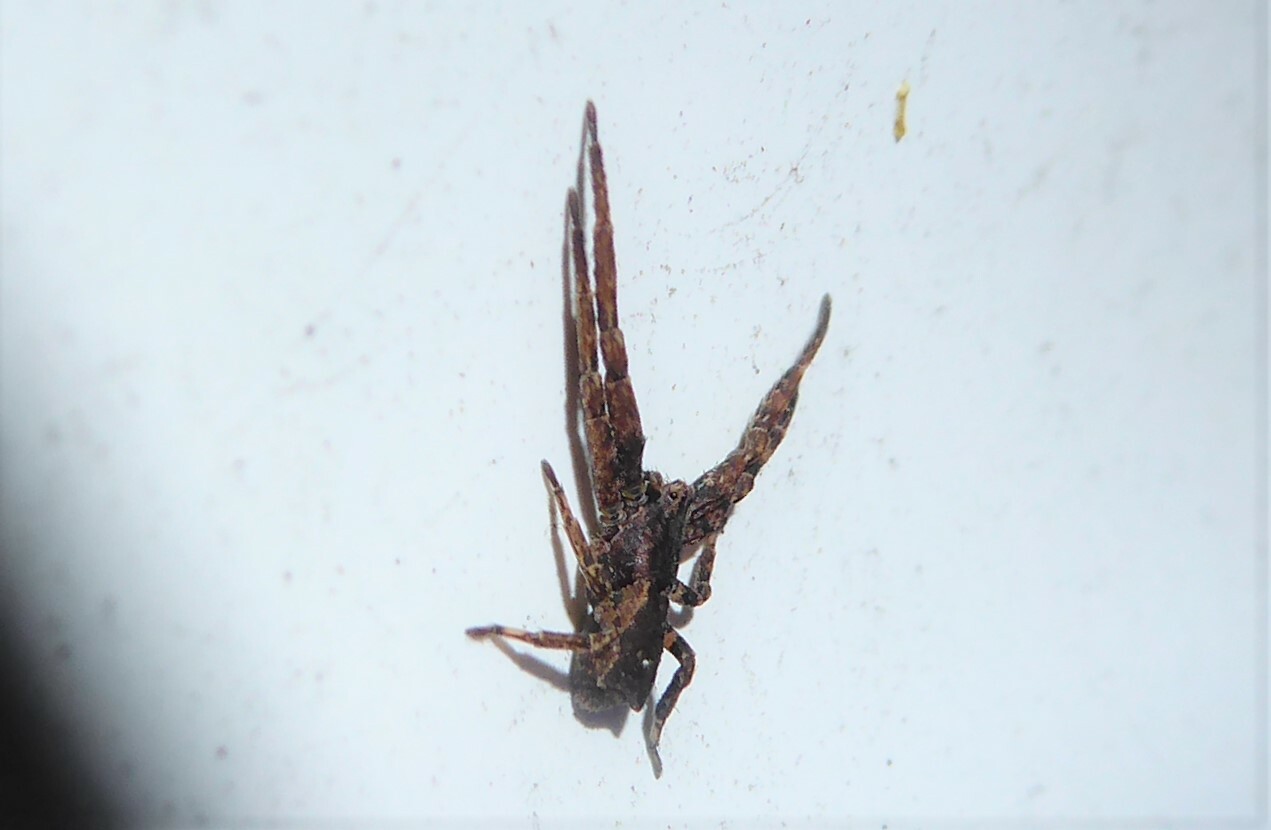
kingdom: Animalia
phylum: Arthropoda
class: Arachnida
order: Araneae
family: Thomisidae
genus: Sidymella
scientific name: Sidymella angularis
